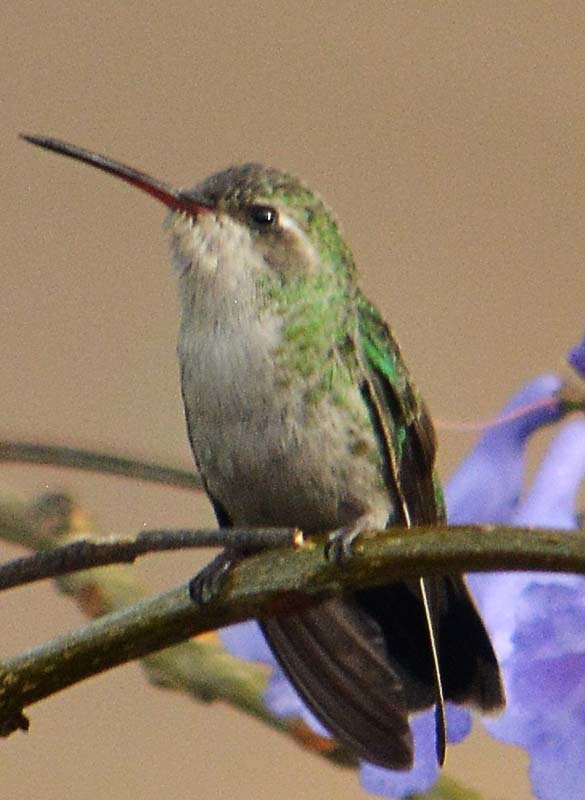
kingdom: Animalia
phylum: Chordata
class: Aves
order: Apodiformes
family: Trochilidae
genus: Cynanthus
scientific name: Cynanthus latirostris
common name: Broad-billed hummingbird
